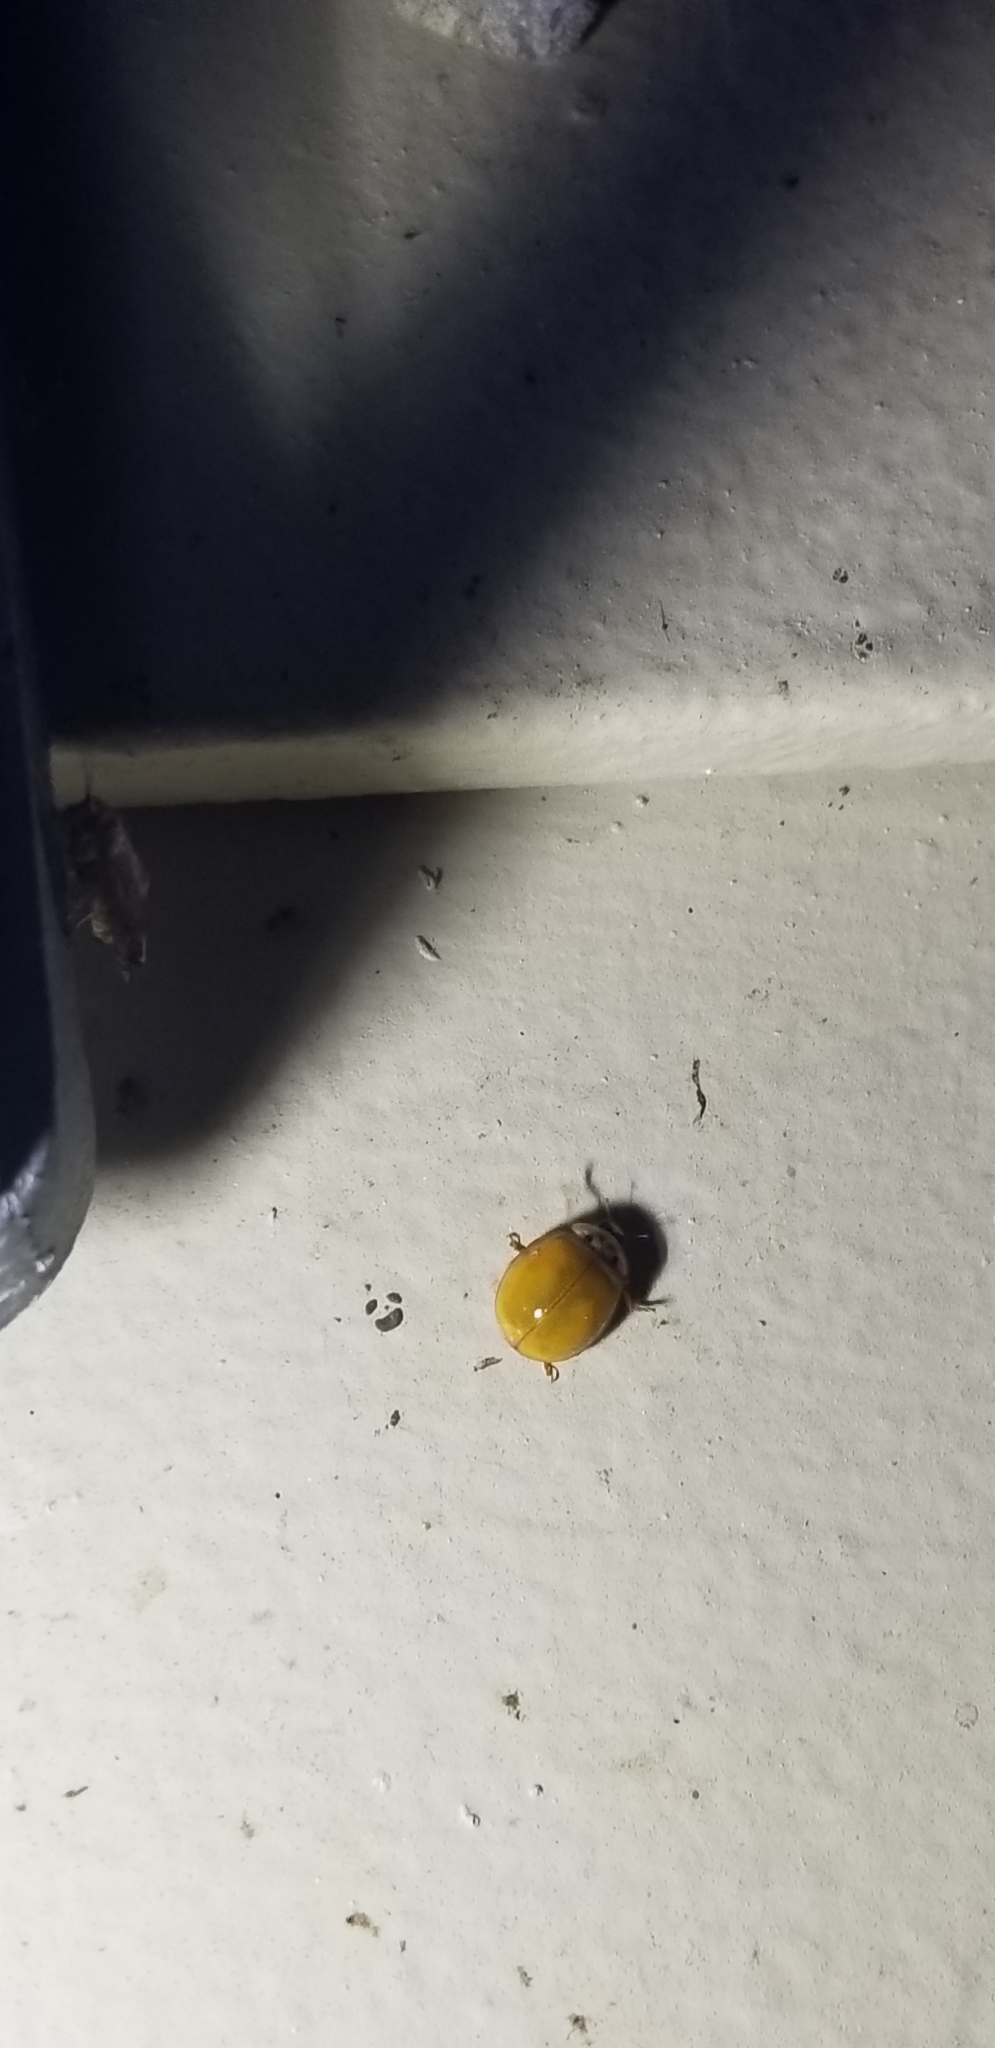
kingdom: Animalia
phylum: Arthropoda
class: Insecta
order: Coleoptera
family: Coccinellidae
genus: Harmonia
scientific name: Harmonia axyridis
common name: Harlequin ladybird
